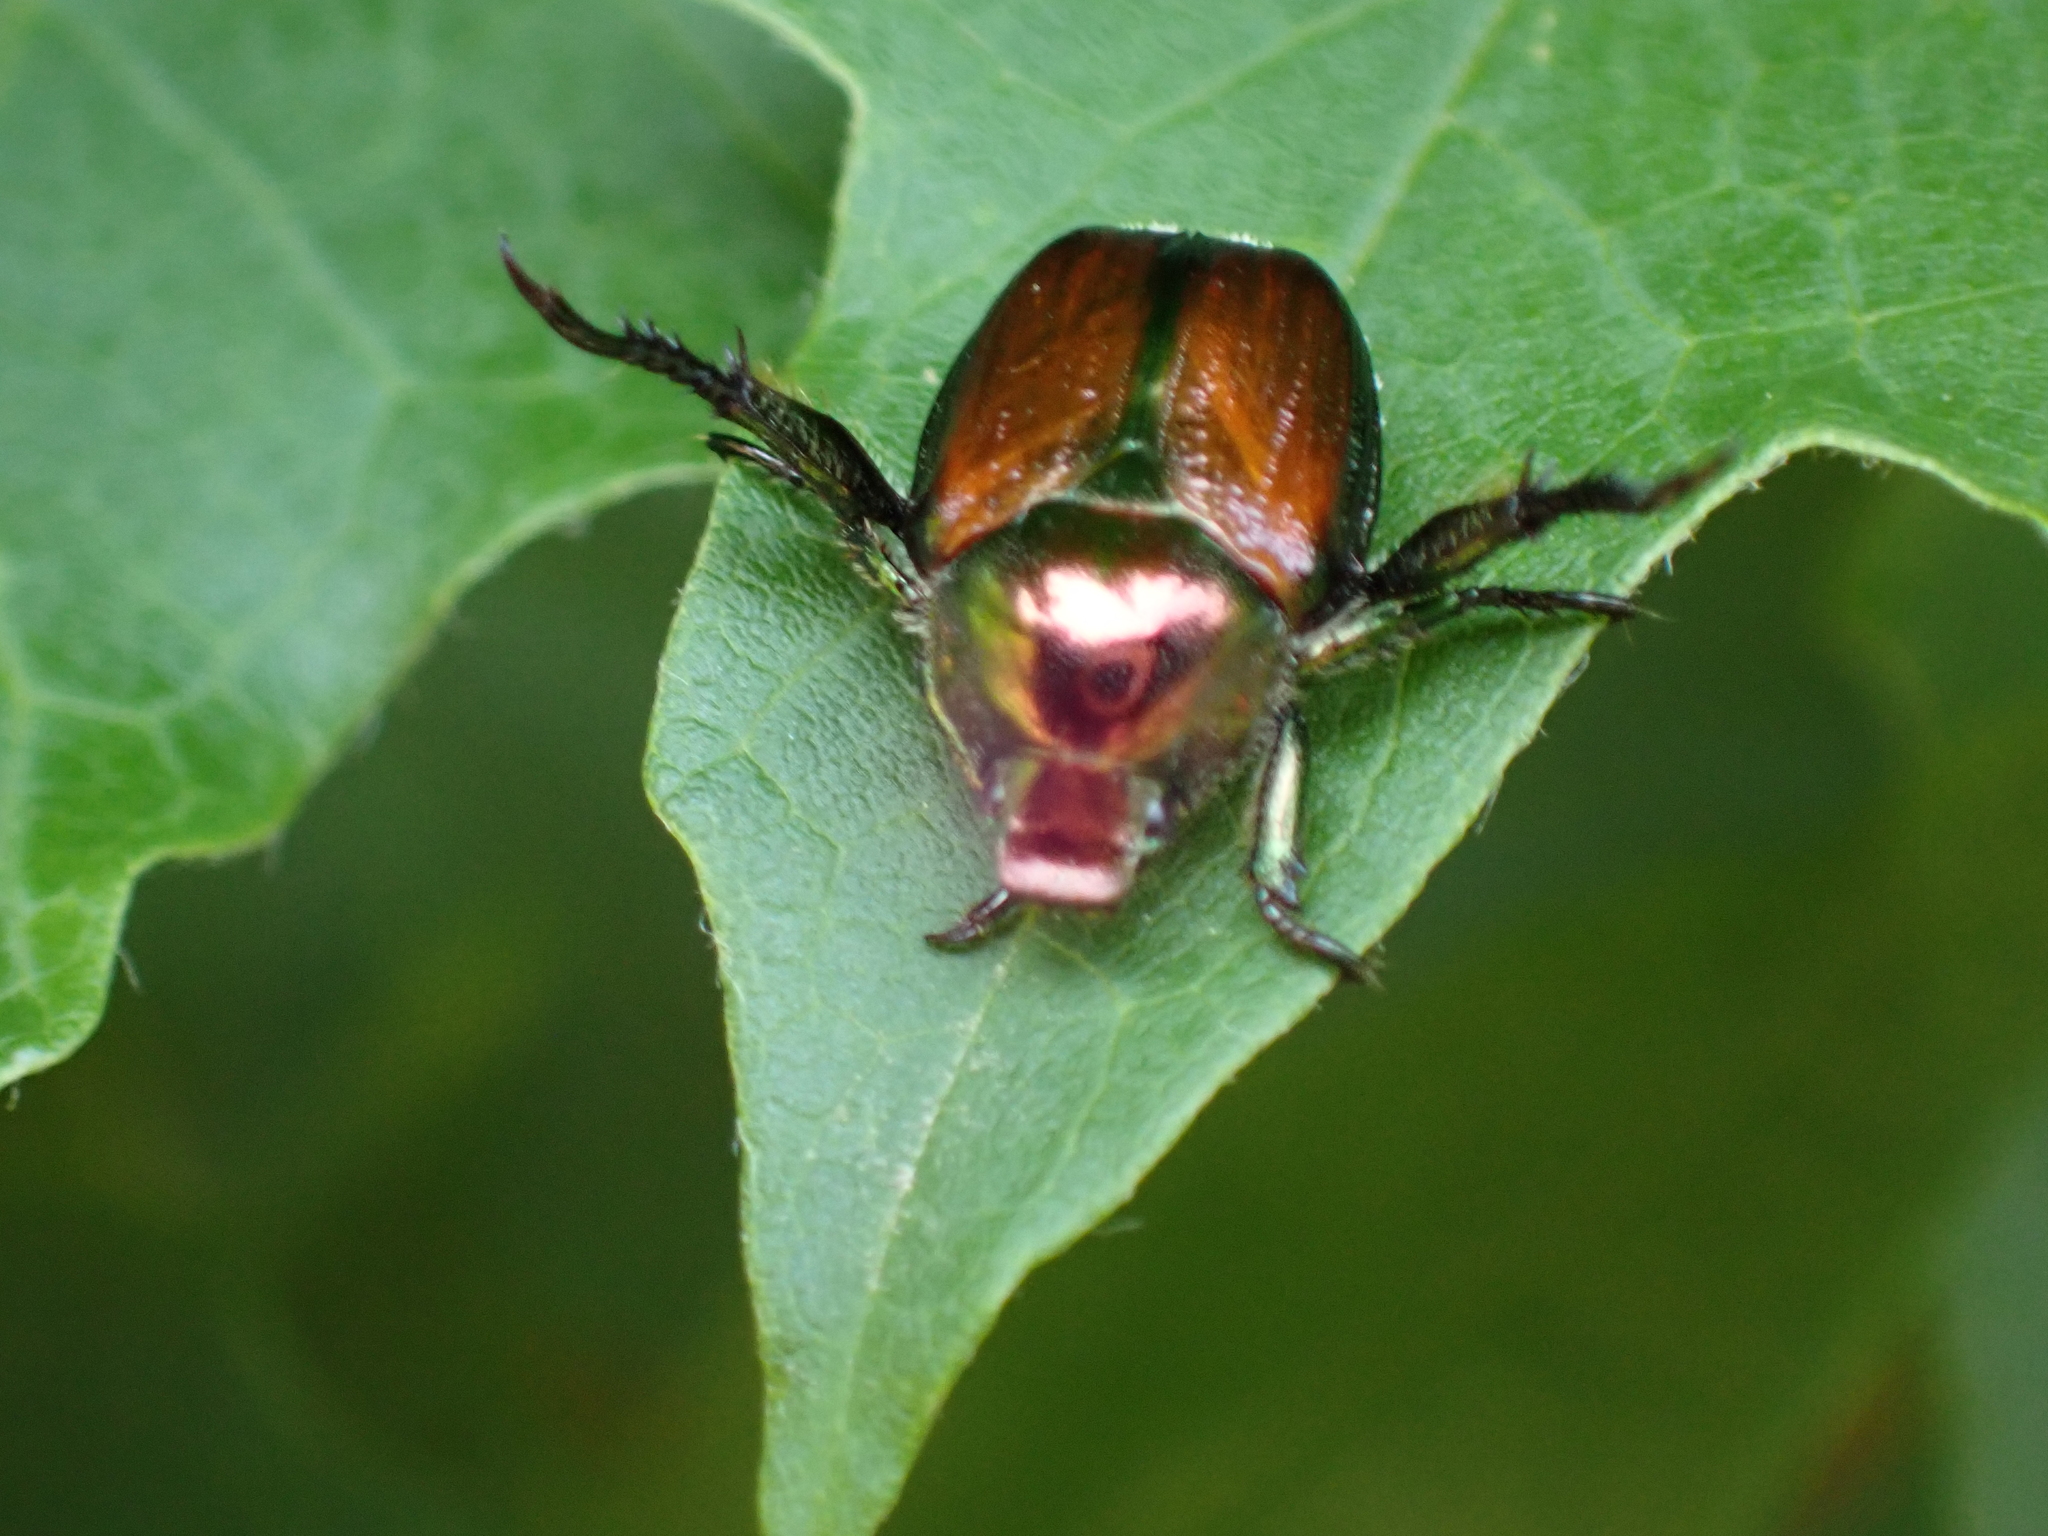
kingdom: Animalia
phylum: Arthropoda
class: Insecta
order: Coleoptera
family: Scarabaeidae
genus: Popillia
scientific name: Popillia japonica
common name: Japanese beetle
